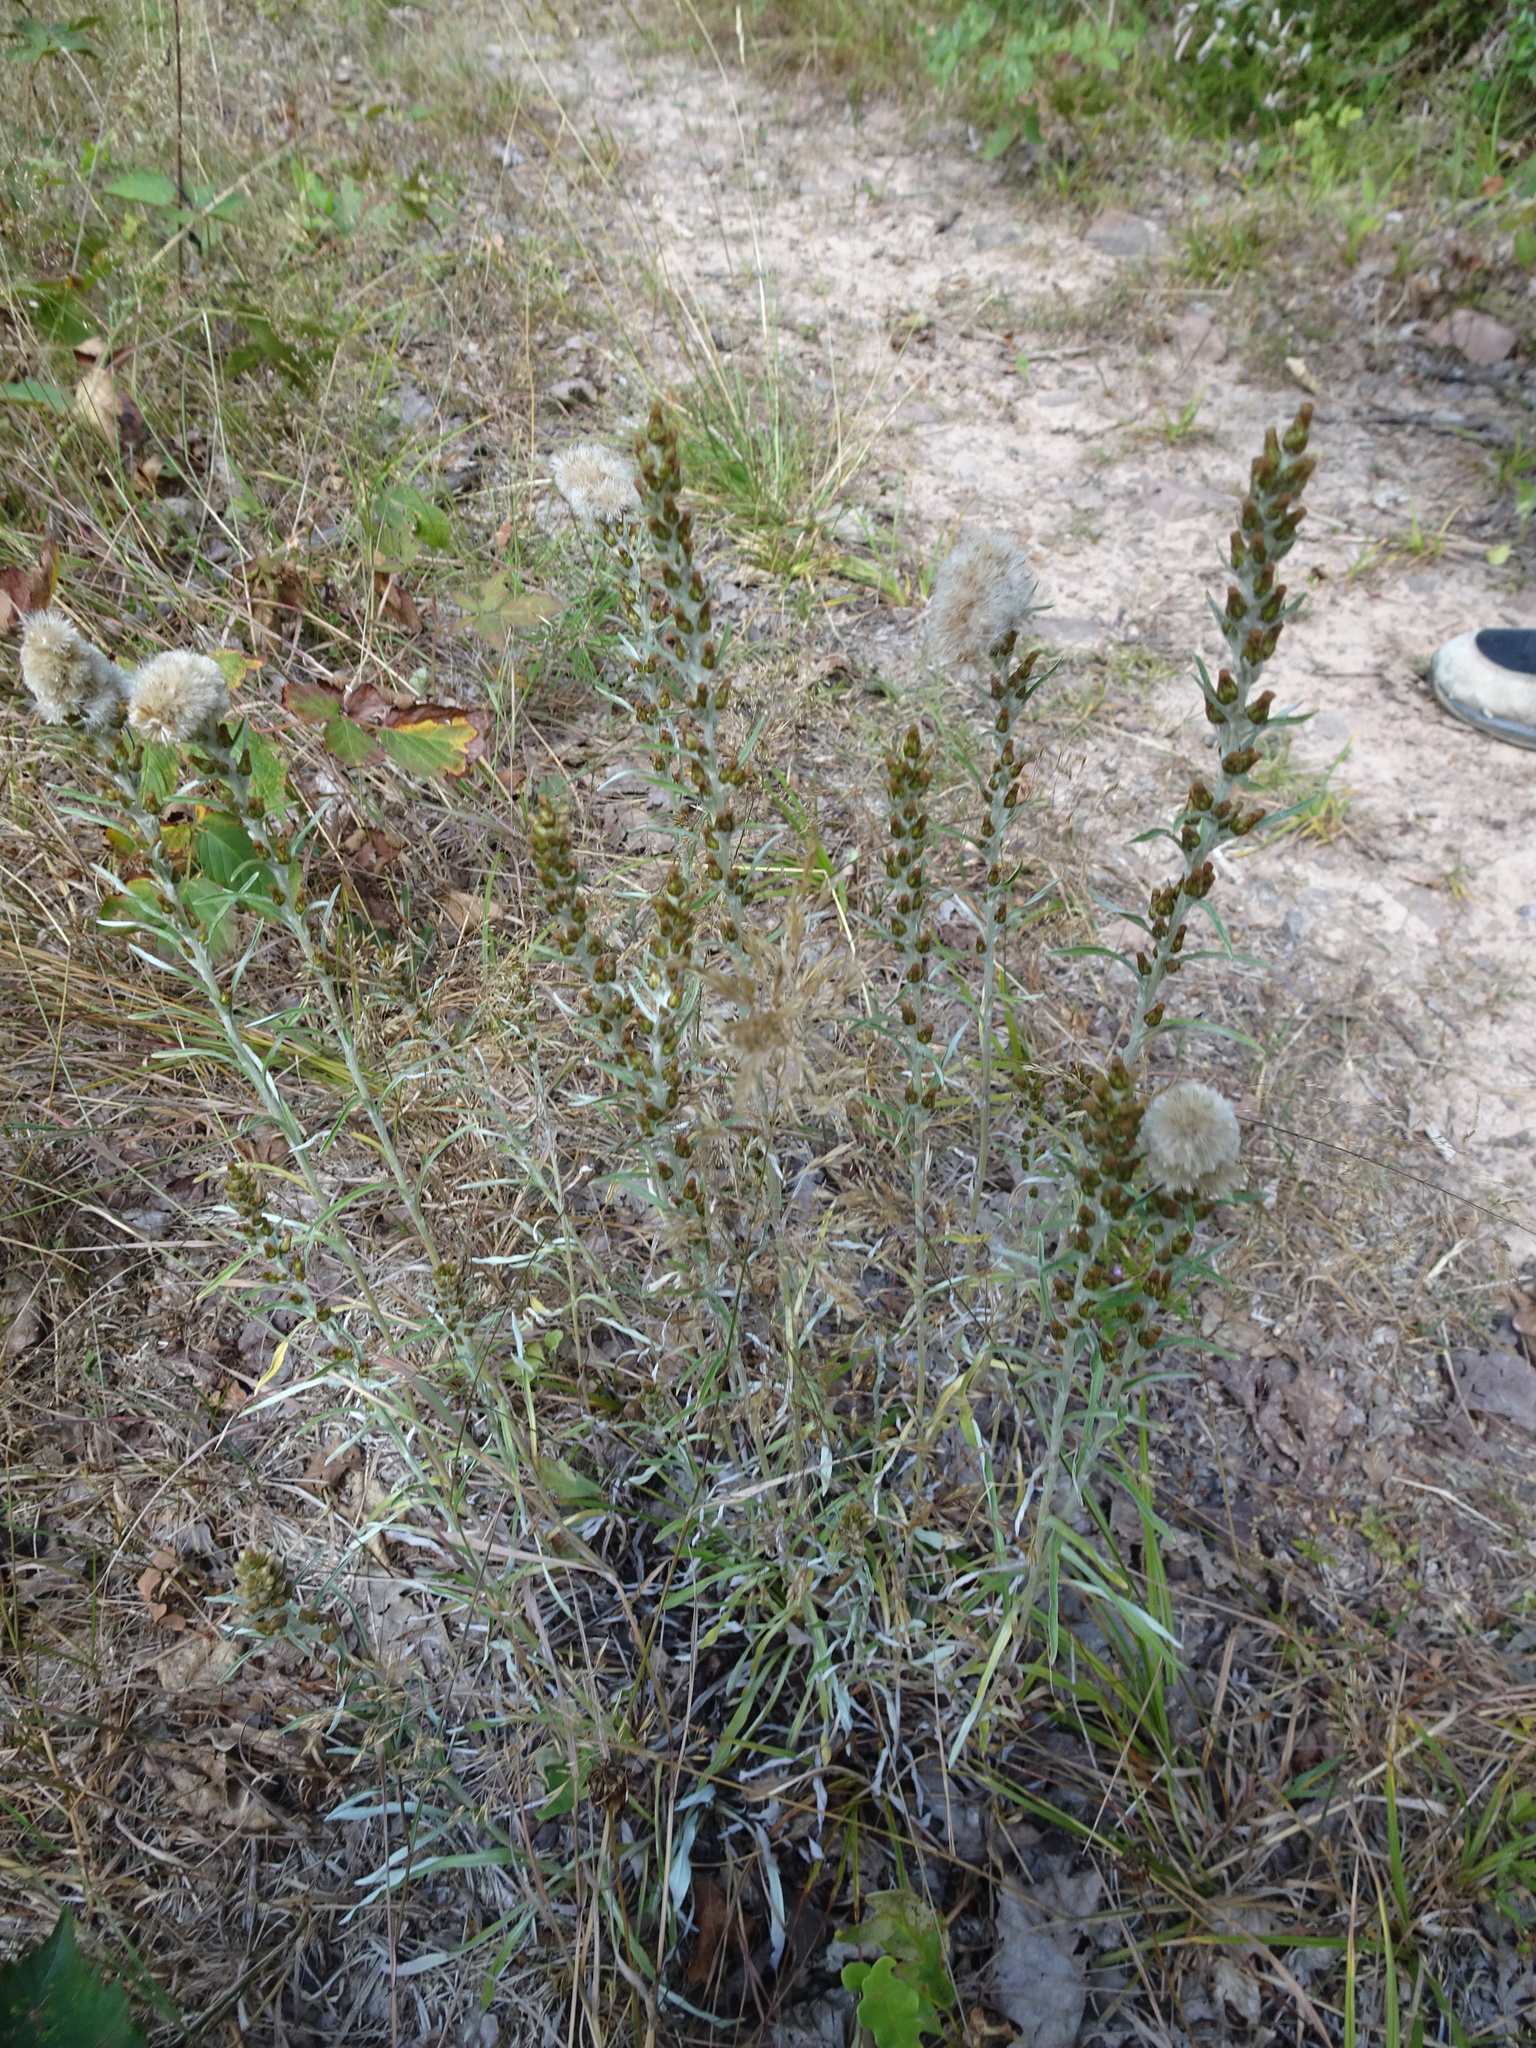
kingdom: Plantae
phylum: Tracheophyta
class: Magnoliopsida
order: Asterales
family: Asteraceae
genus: Omalotheca
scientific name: Omalotheca sylvatica
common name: Heath cudweed
